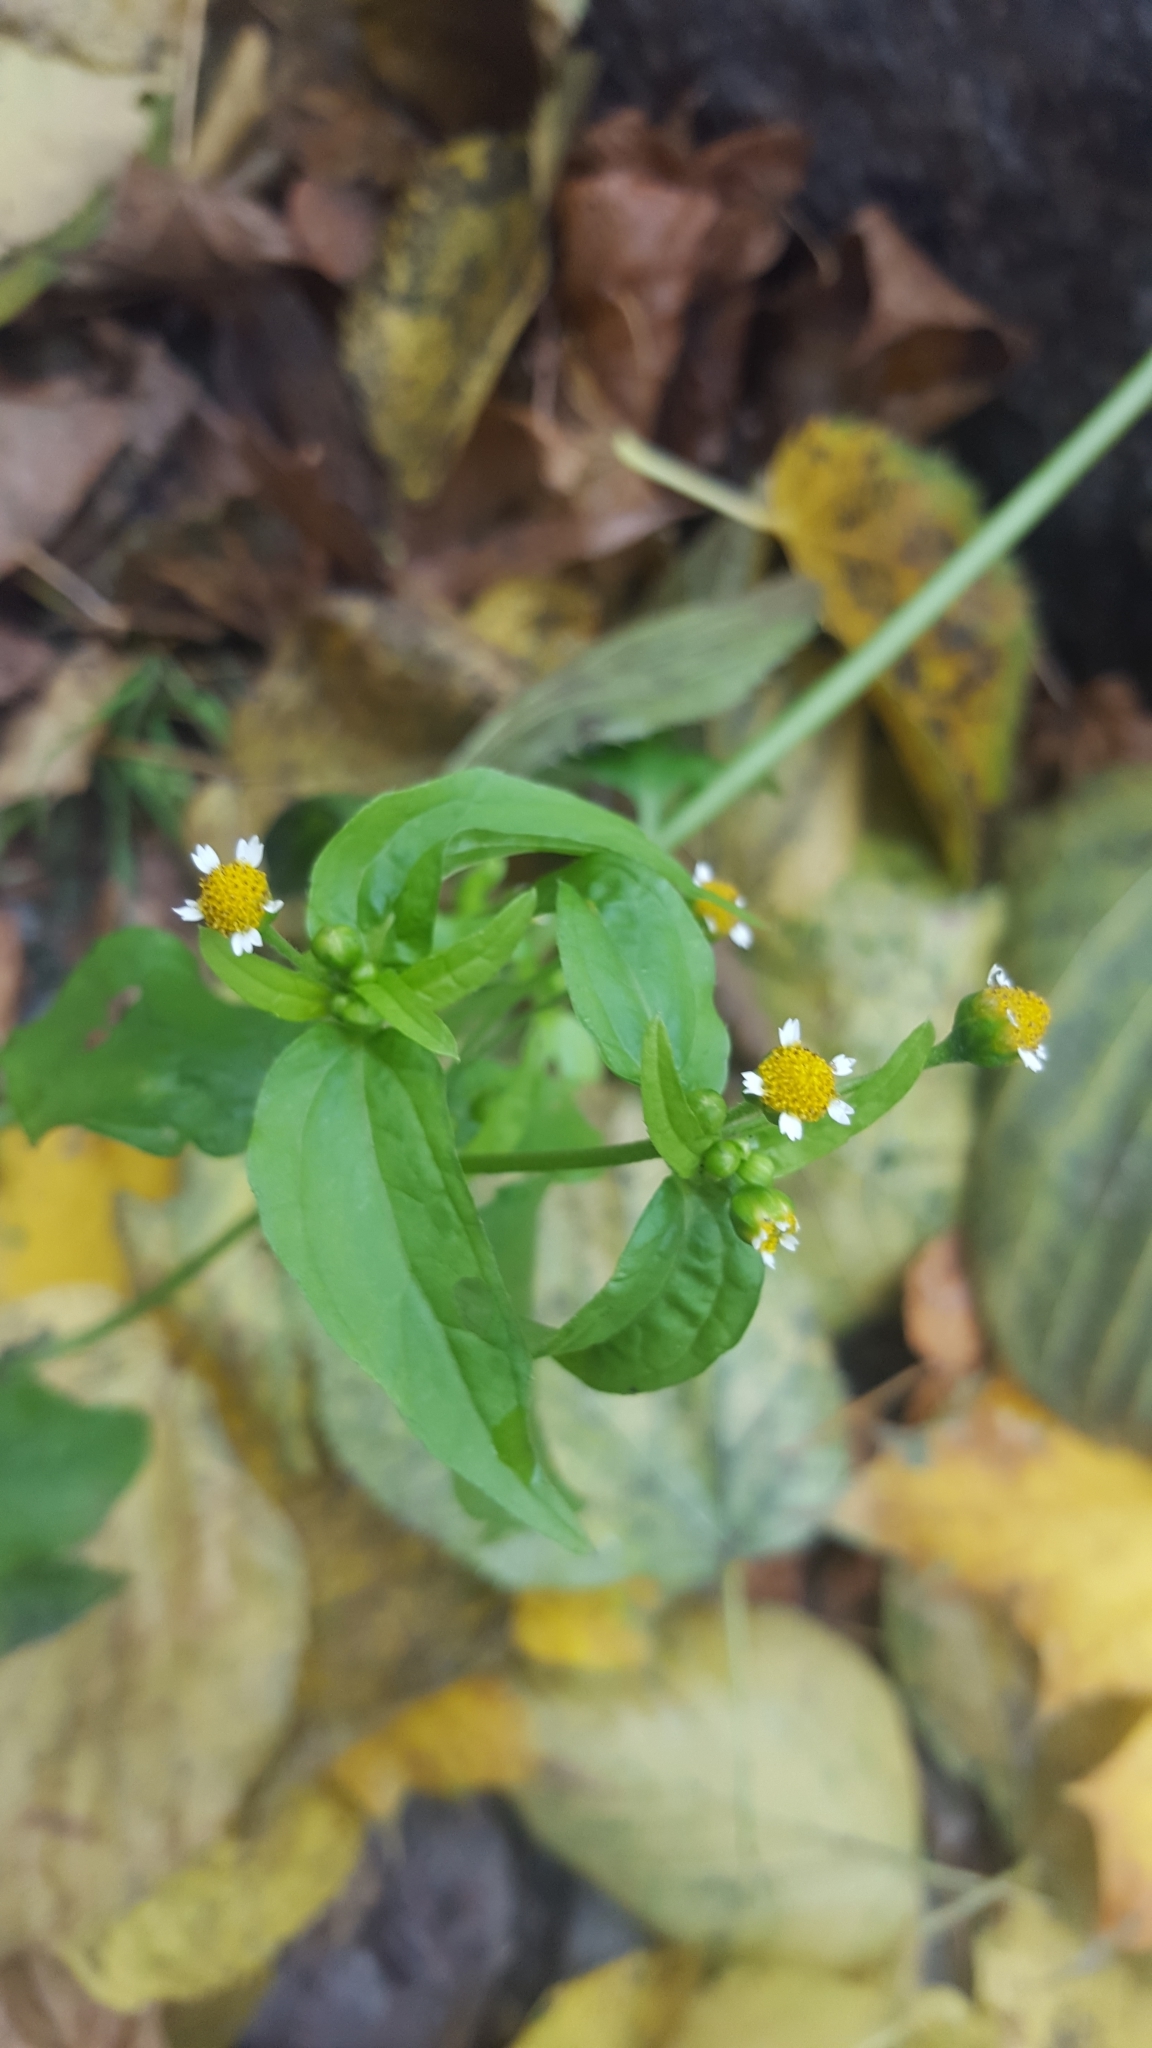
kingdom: Plantae
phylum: Tracheophyta
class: Magnoliopsida
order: Asterales
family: Asteraceae
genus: Galinsoga
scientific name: Galinsoga parviflora
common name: Gallant soldier
